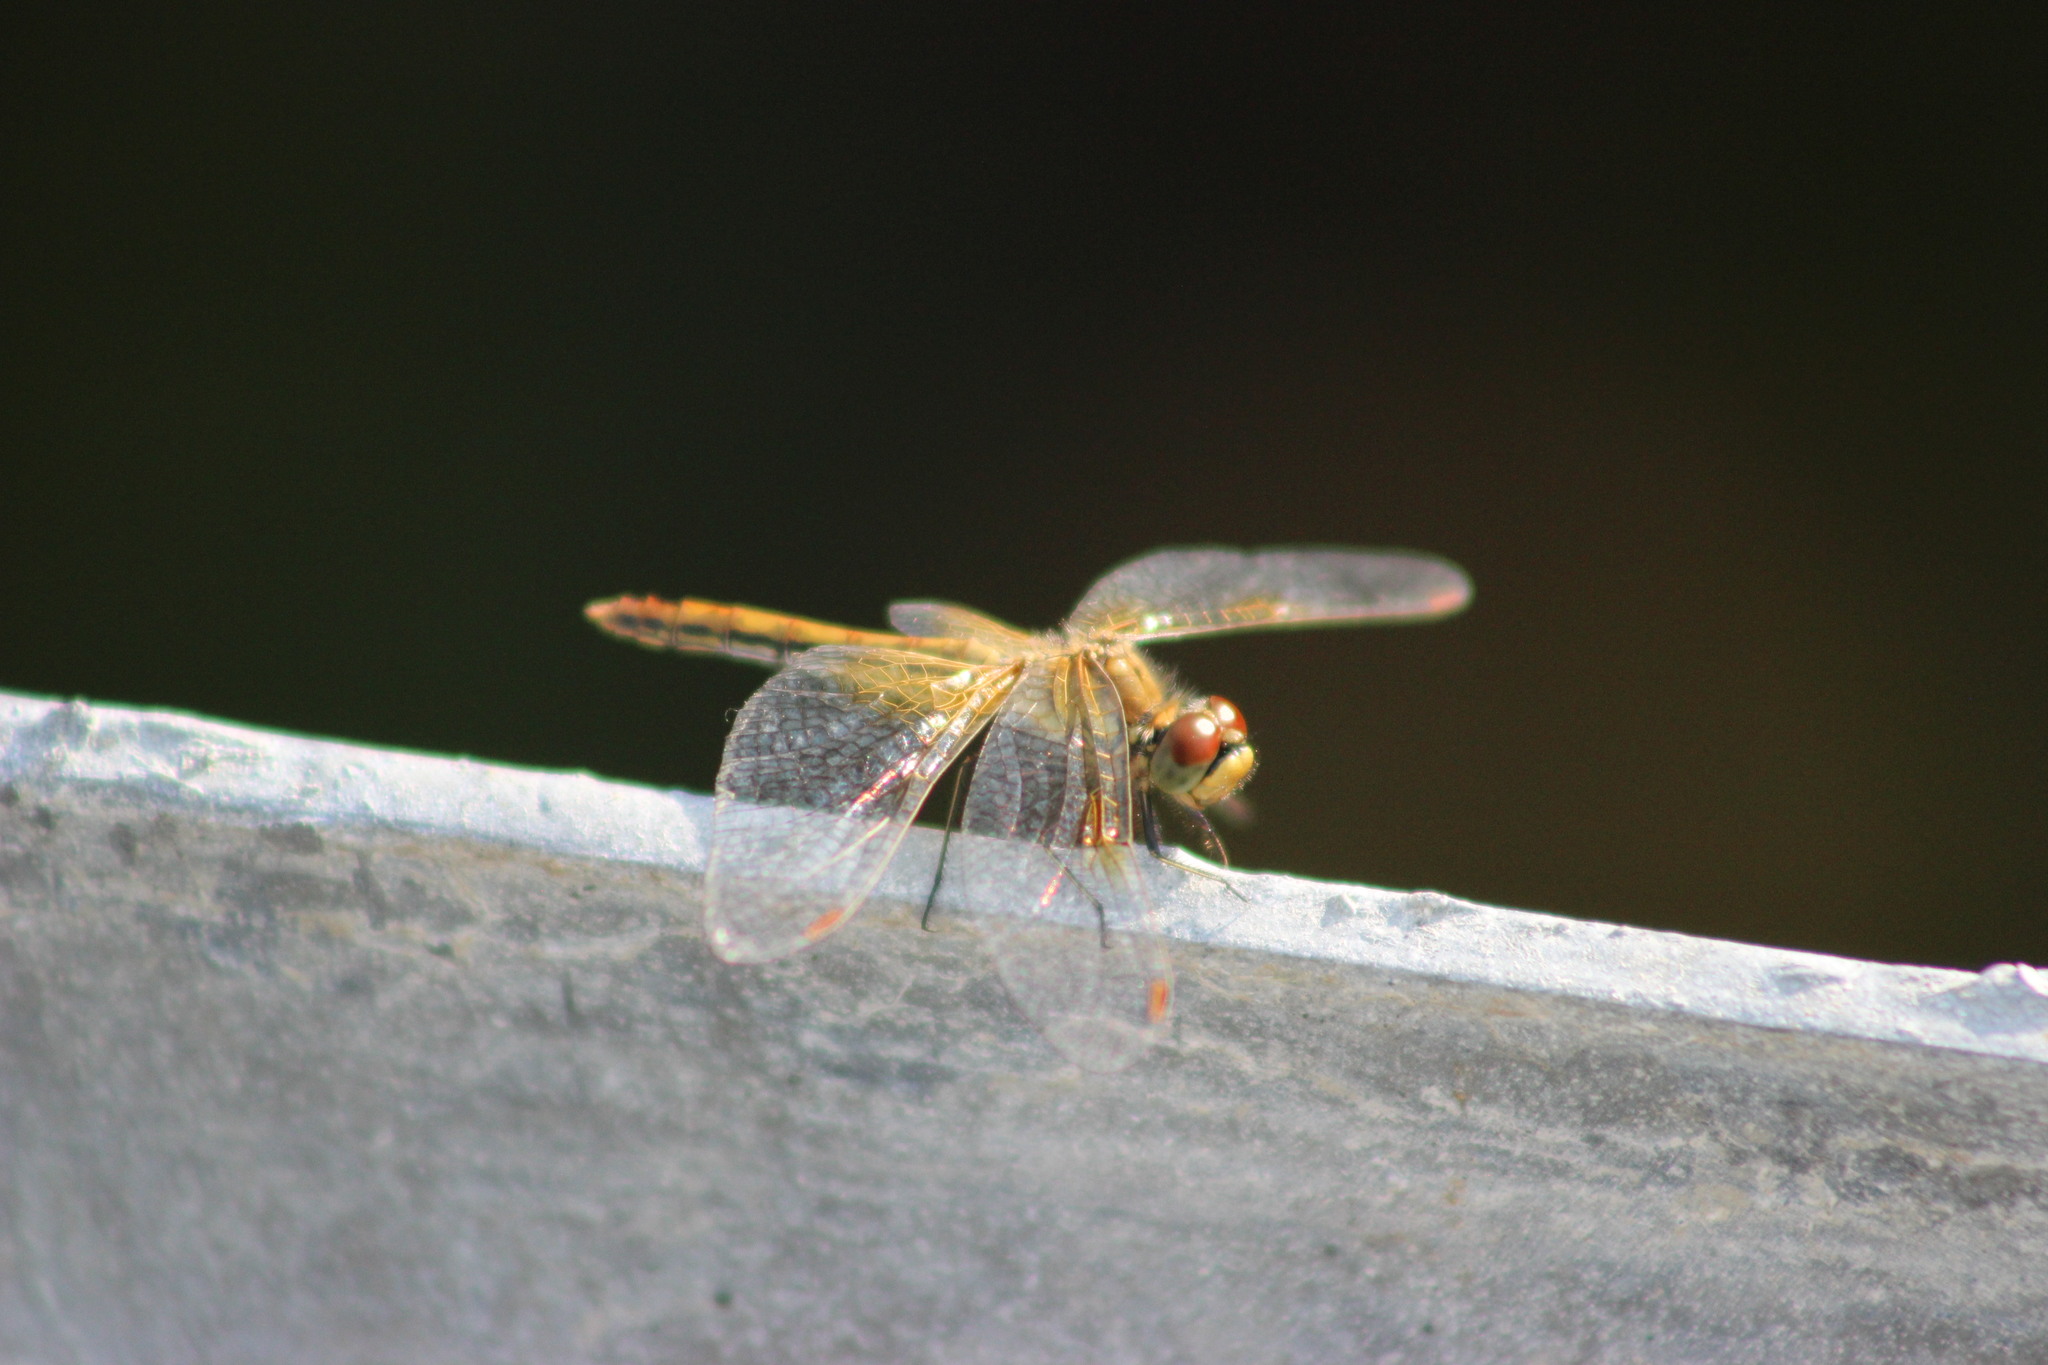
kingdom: Animalia
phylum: Arthropoda
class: Insecta
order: Odonata
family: Libellulidae
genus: Sympetrum
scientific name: Sympetrum flaveolum
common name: Yellow-winged darter
